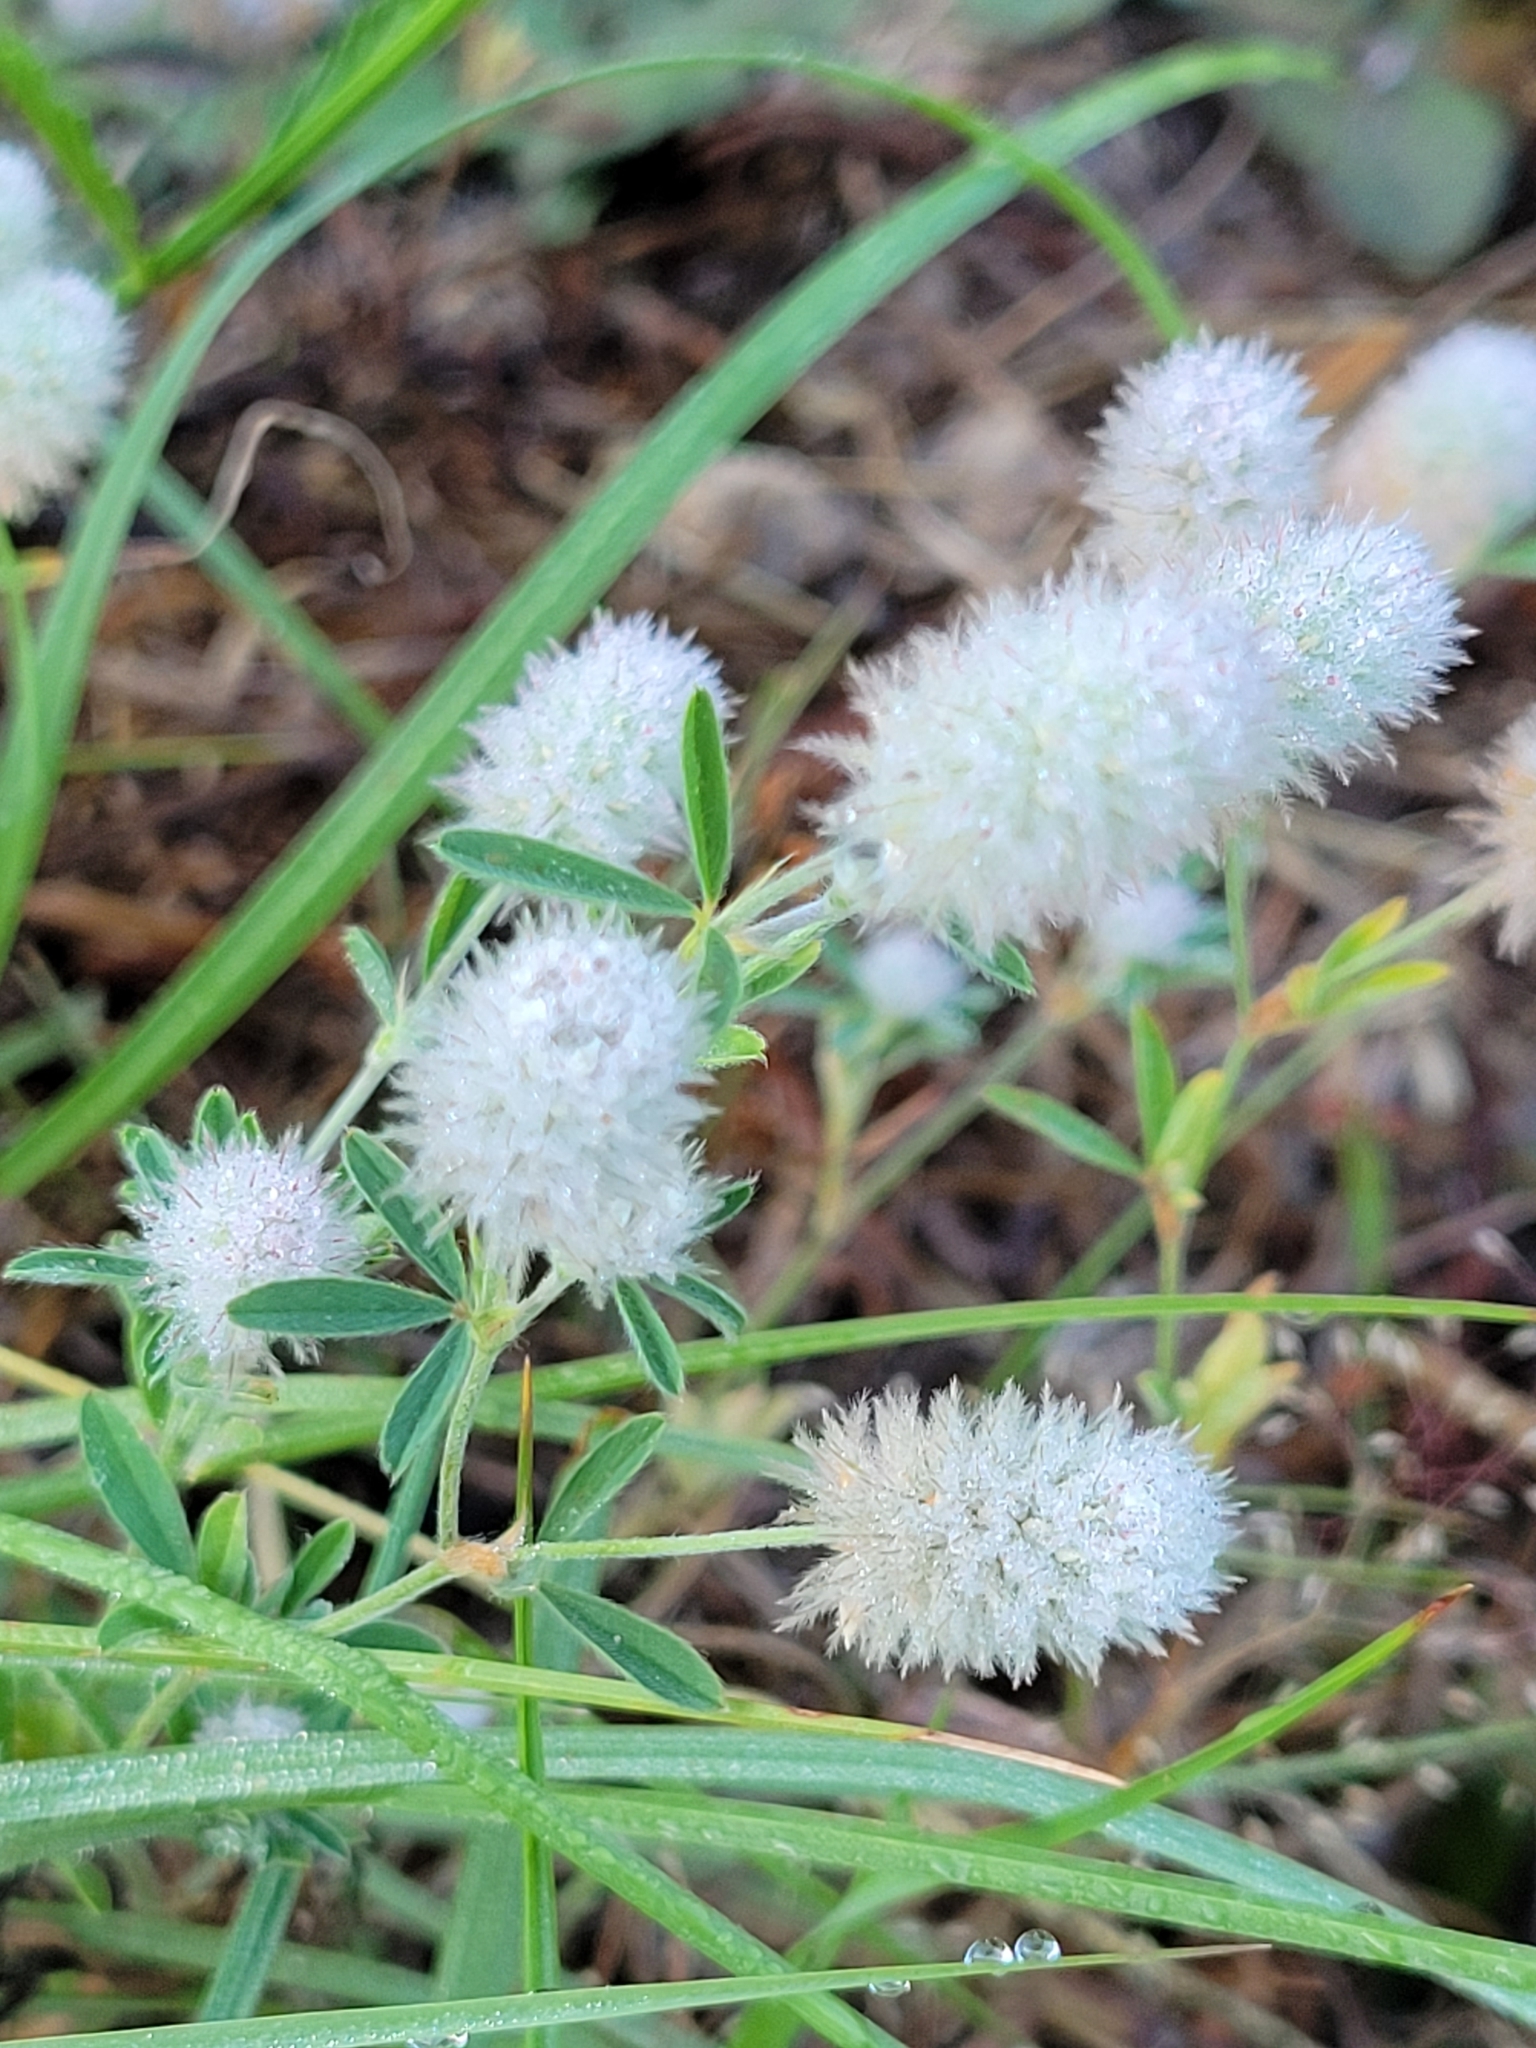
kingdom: Plantae
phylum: Tracheophyta
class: Magnoliopsida
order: Fabales
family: Fabaceae
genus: Trifolium
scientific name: Trifolium arvense
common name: Hare's-foot clover
